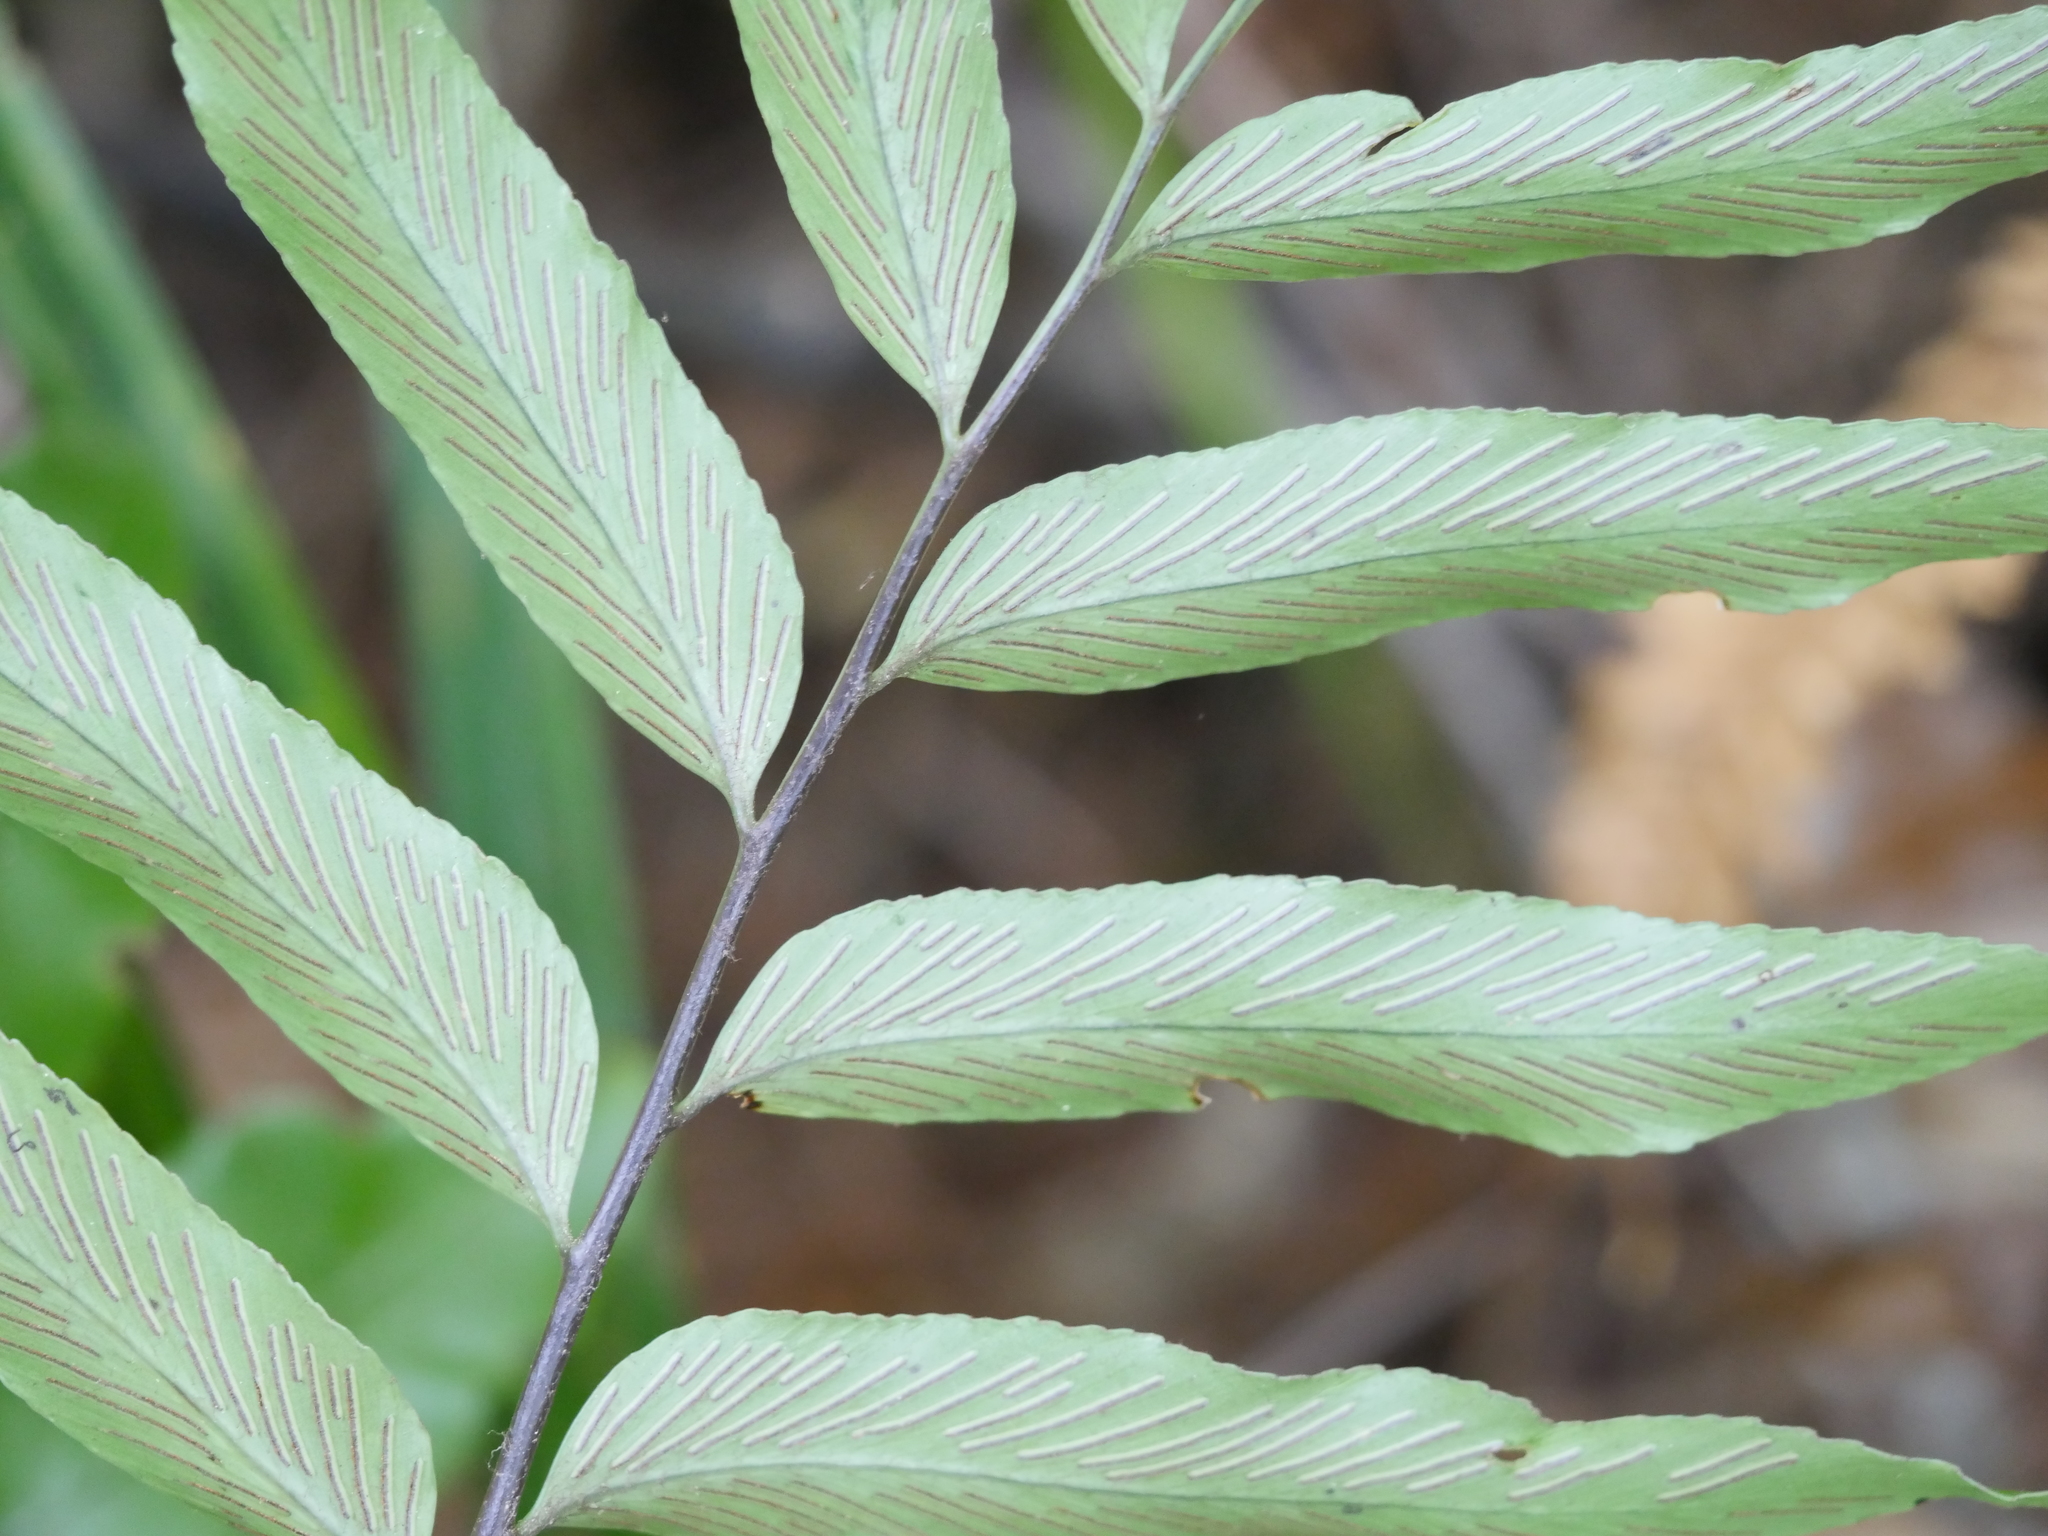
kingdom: Plantae
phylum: Tracheophyta
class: Polypodiopsida
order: Polypodiales
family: Aspleniaceae
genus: Asplenium
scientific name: Asplenium oblongifolium
